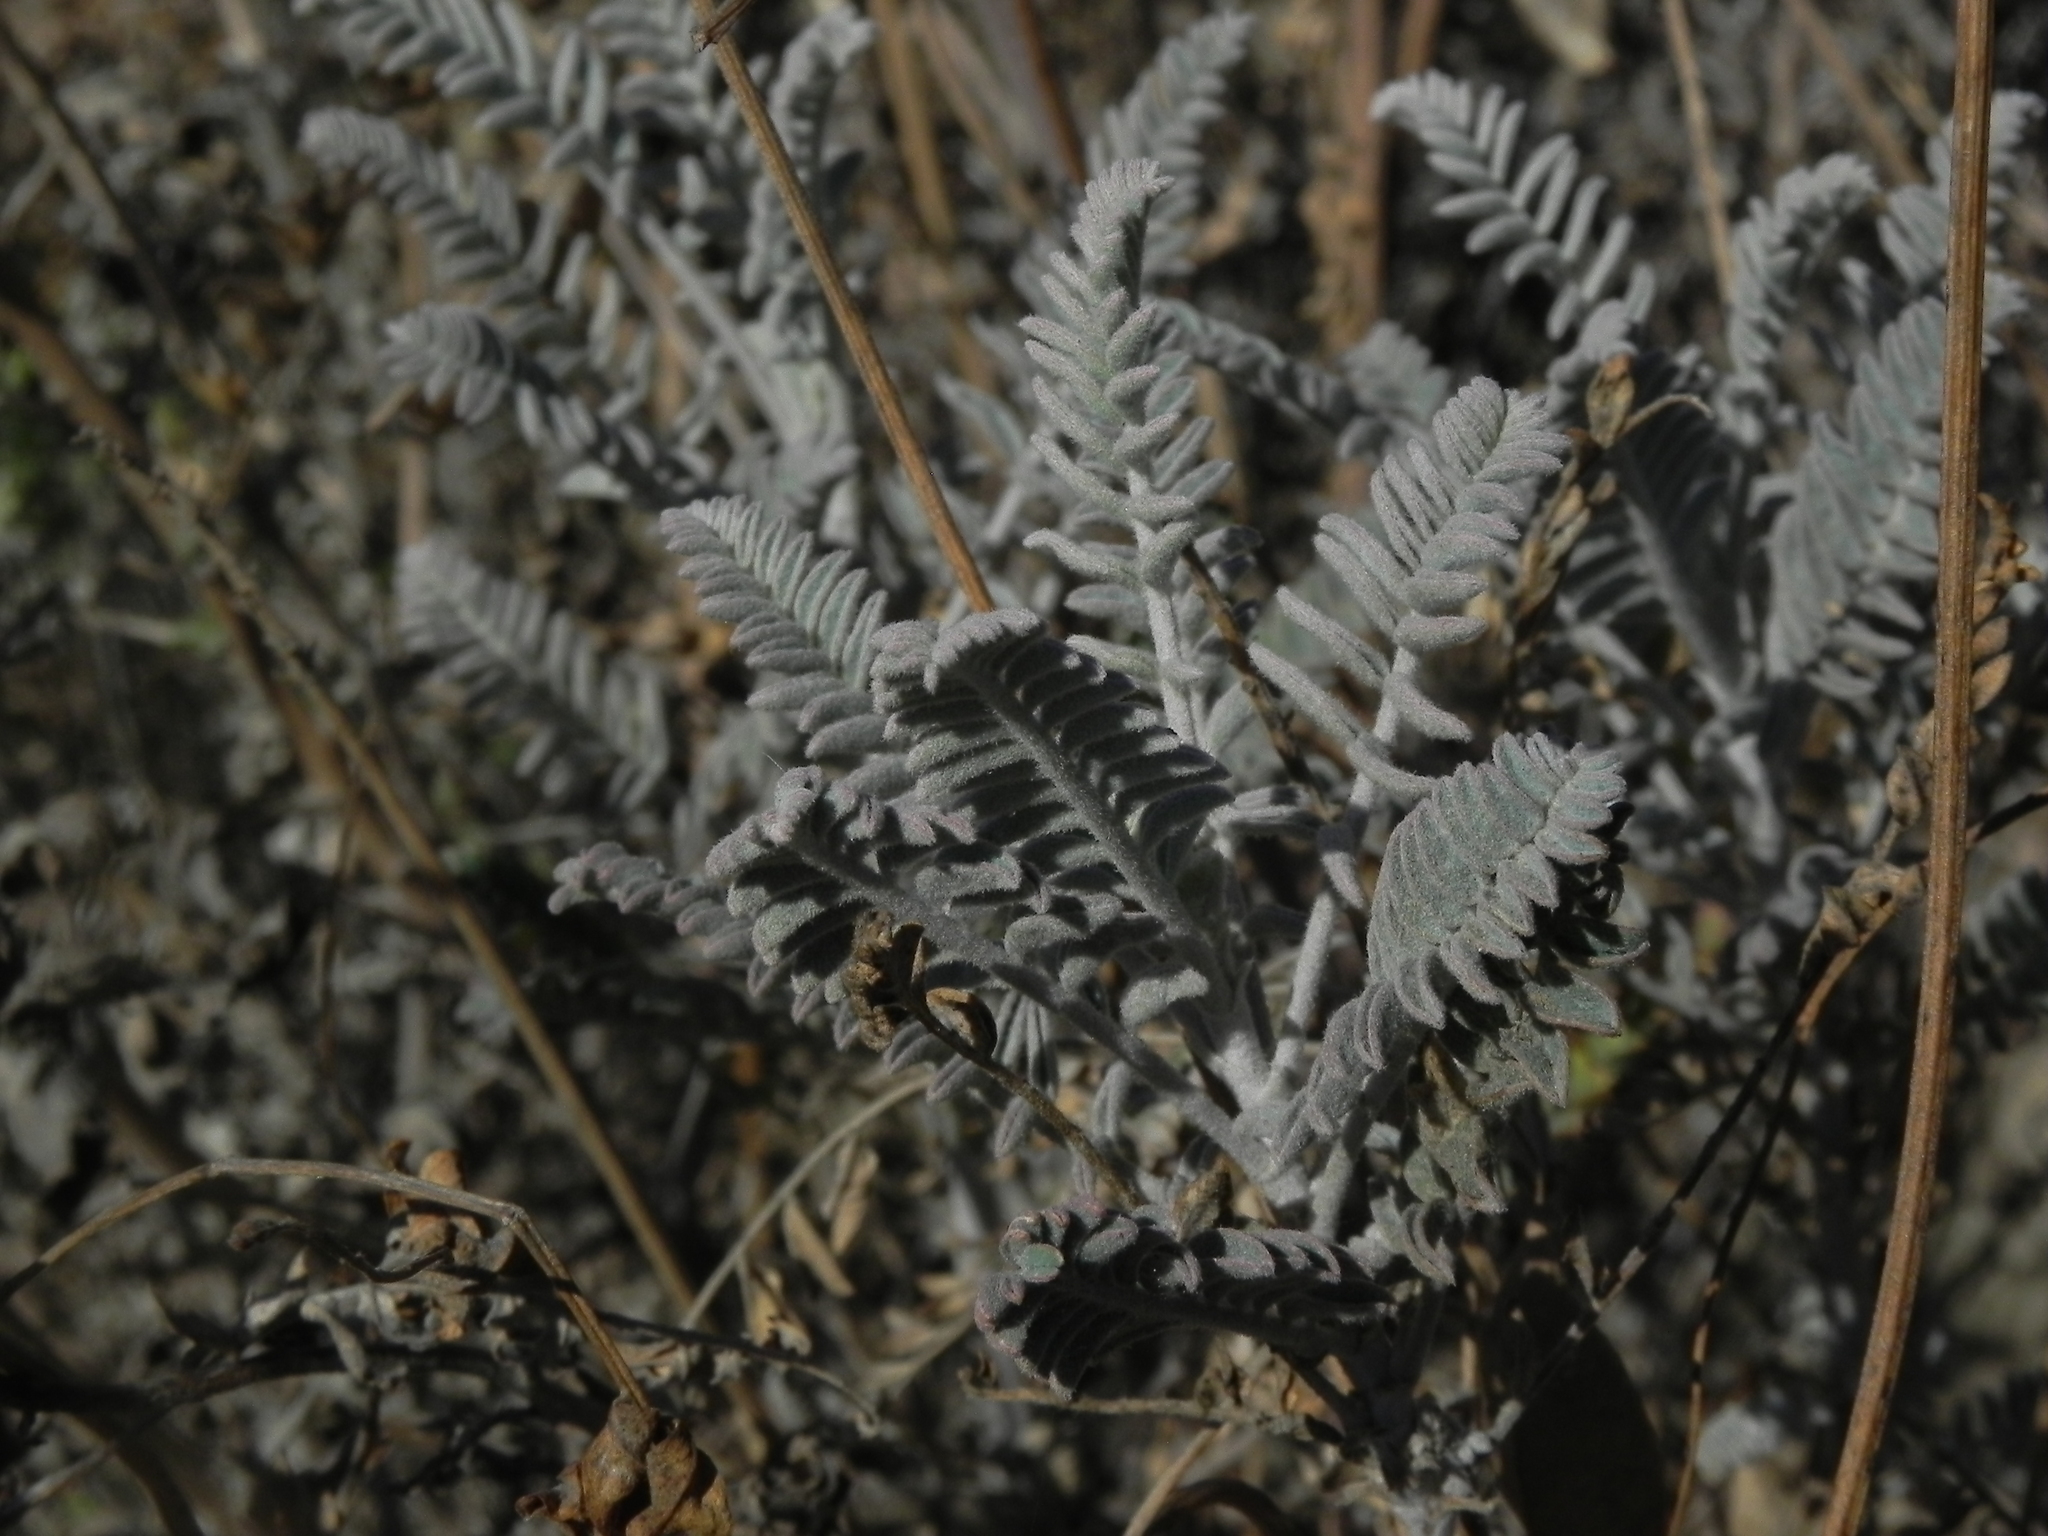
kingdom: Plantae
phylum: Tracheophyta
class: Magnoliopsida
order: Fabales
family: Fabaceae
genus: Astragalus
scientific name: Astragalus trichopodus
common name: Santa barbara milk-vetch
